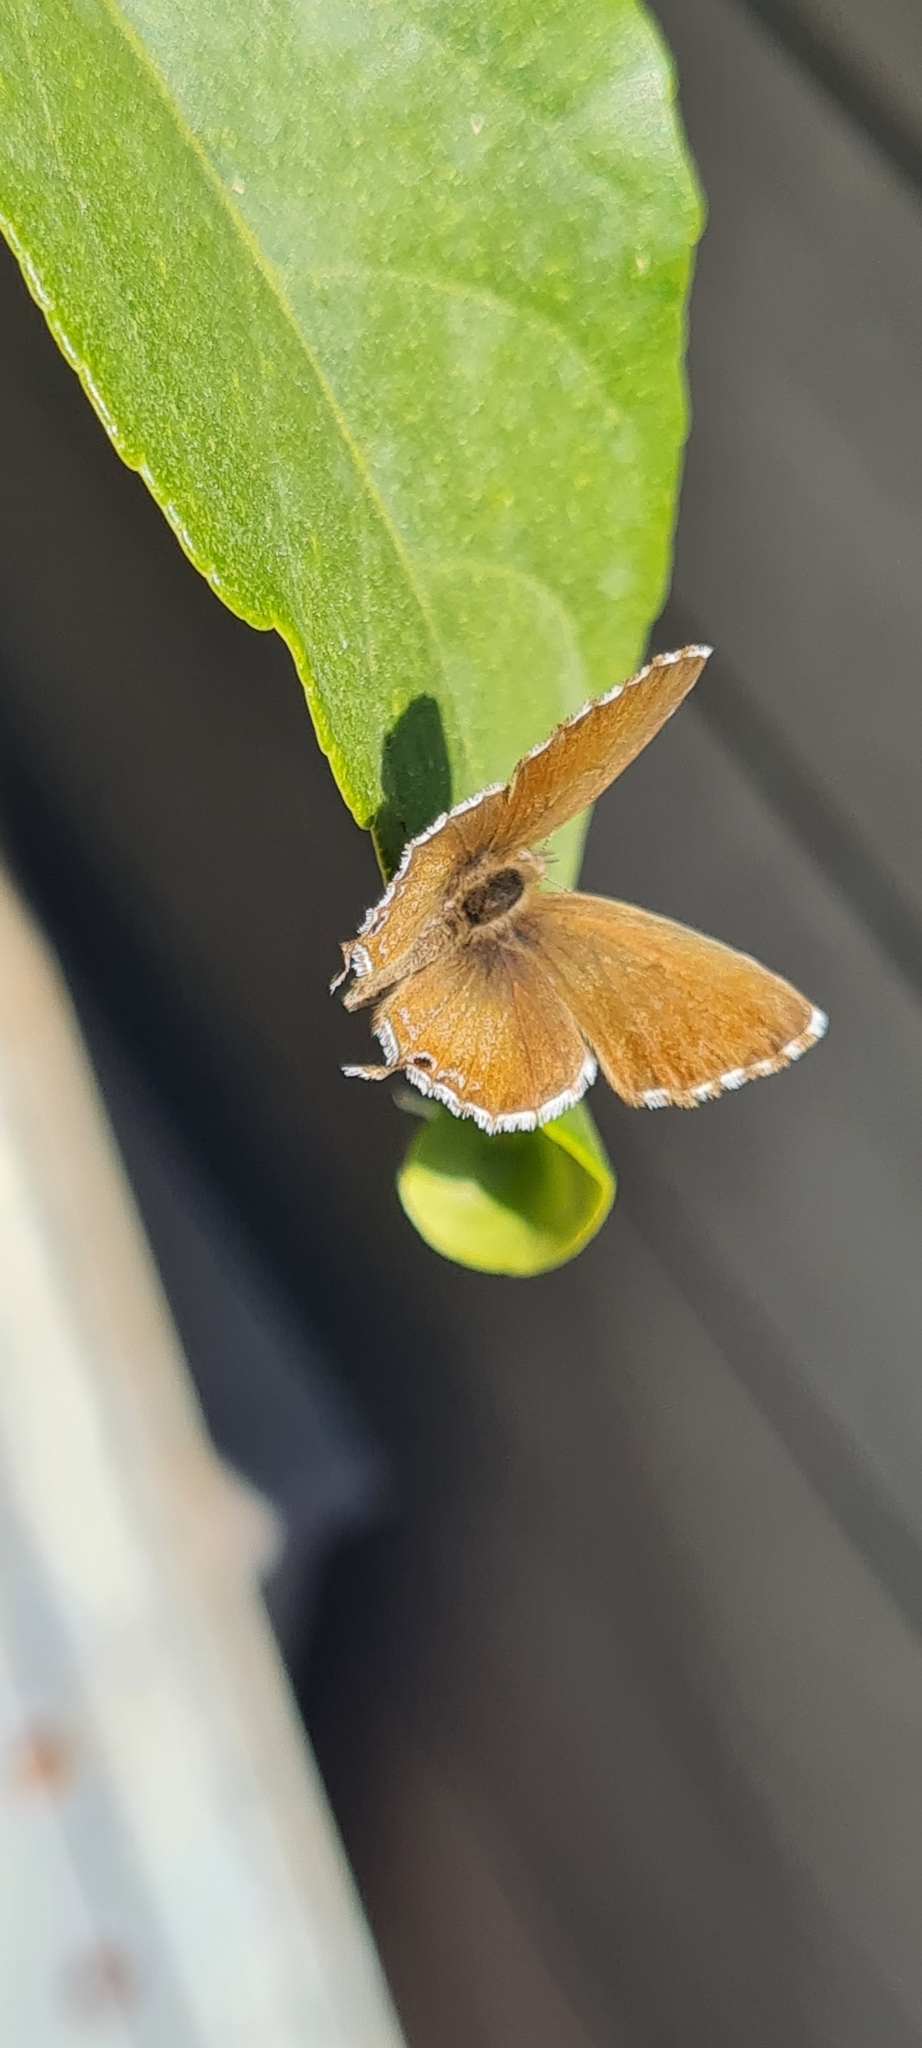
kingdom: Animalia
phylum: Arthropoda
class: Insecta
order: Lepidoptera
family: Lycaenidae
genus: Cacyreus
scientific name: Cacyreus marshalli
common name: Geranium bronze
